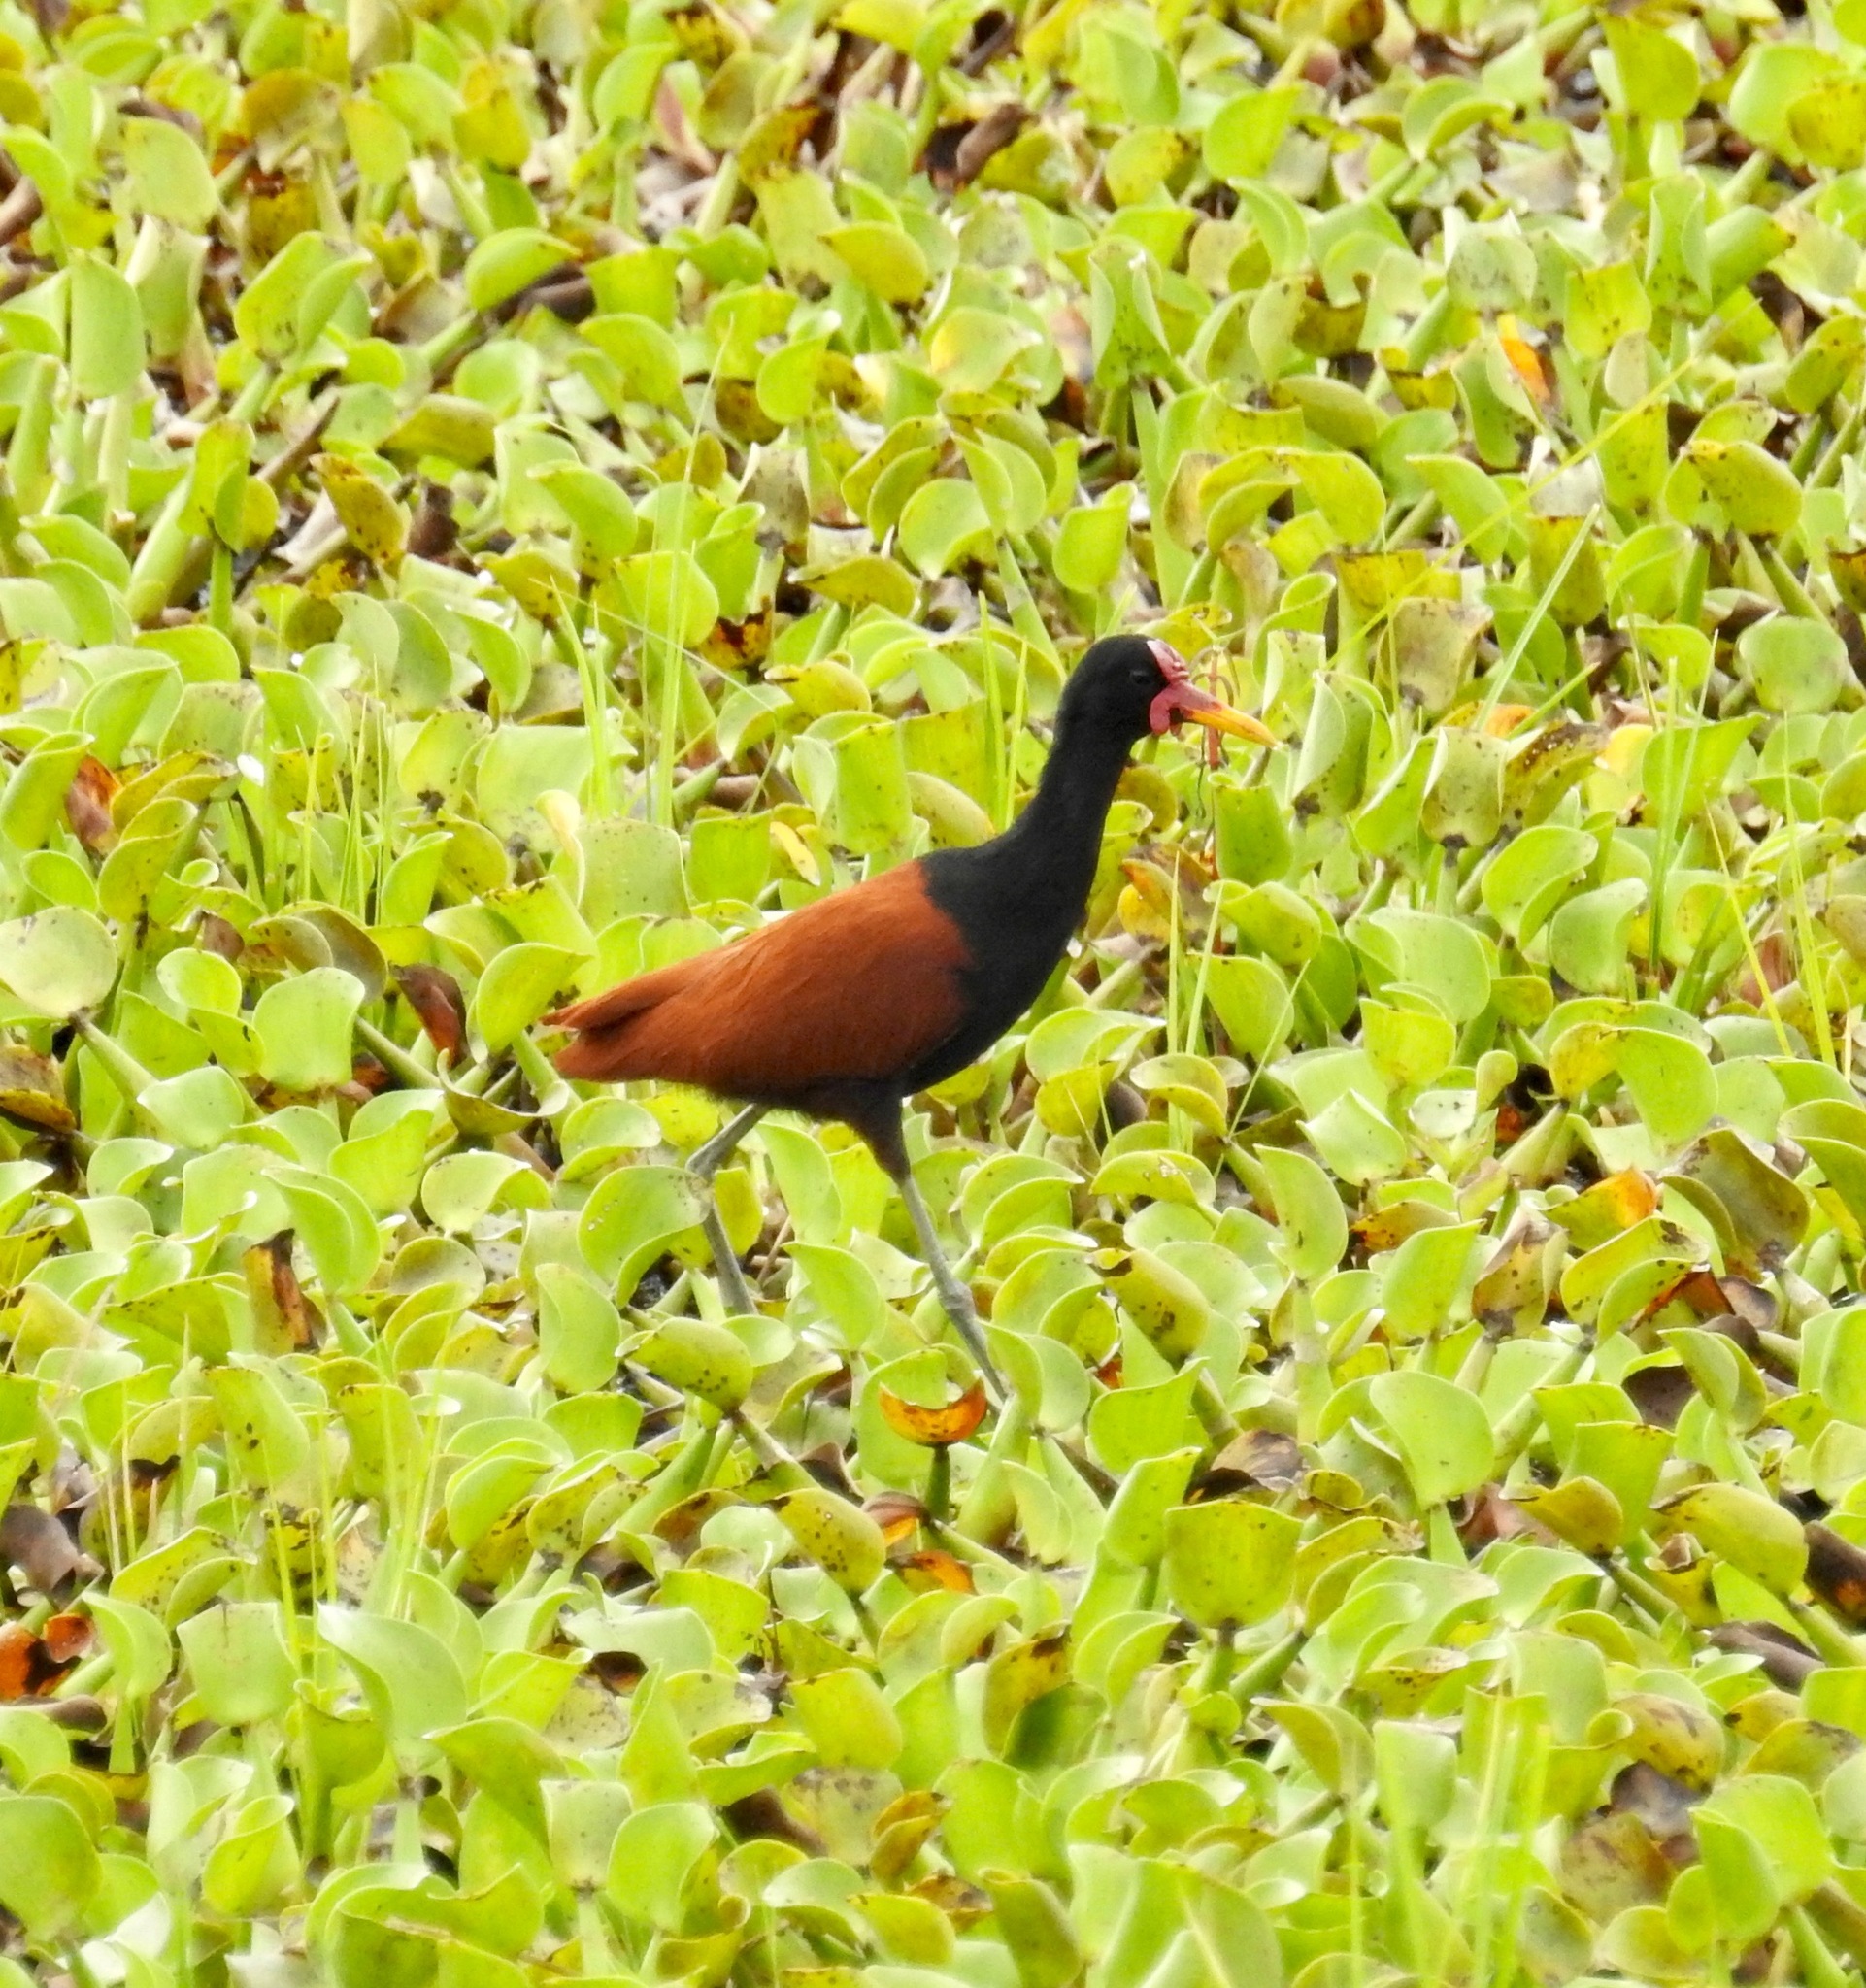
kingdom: Animalia
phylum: Chordata
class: Aves
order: Charadriiformes
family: Jacanidae
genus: Jacana
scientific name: Jacana jacana
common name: Wattled jacana
